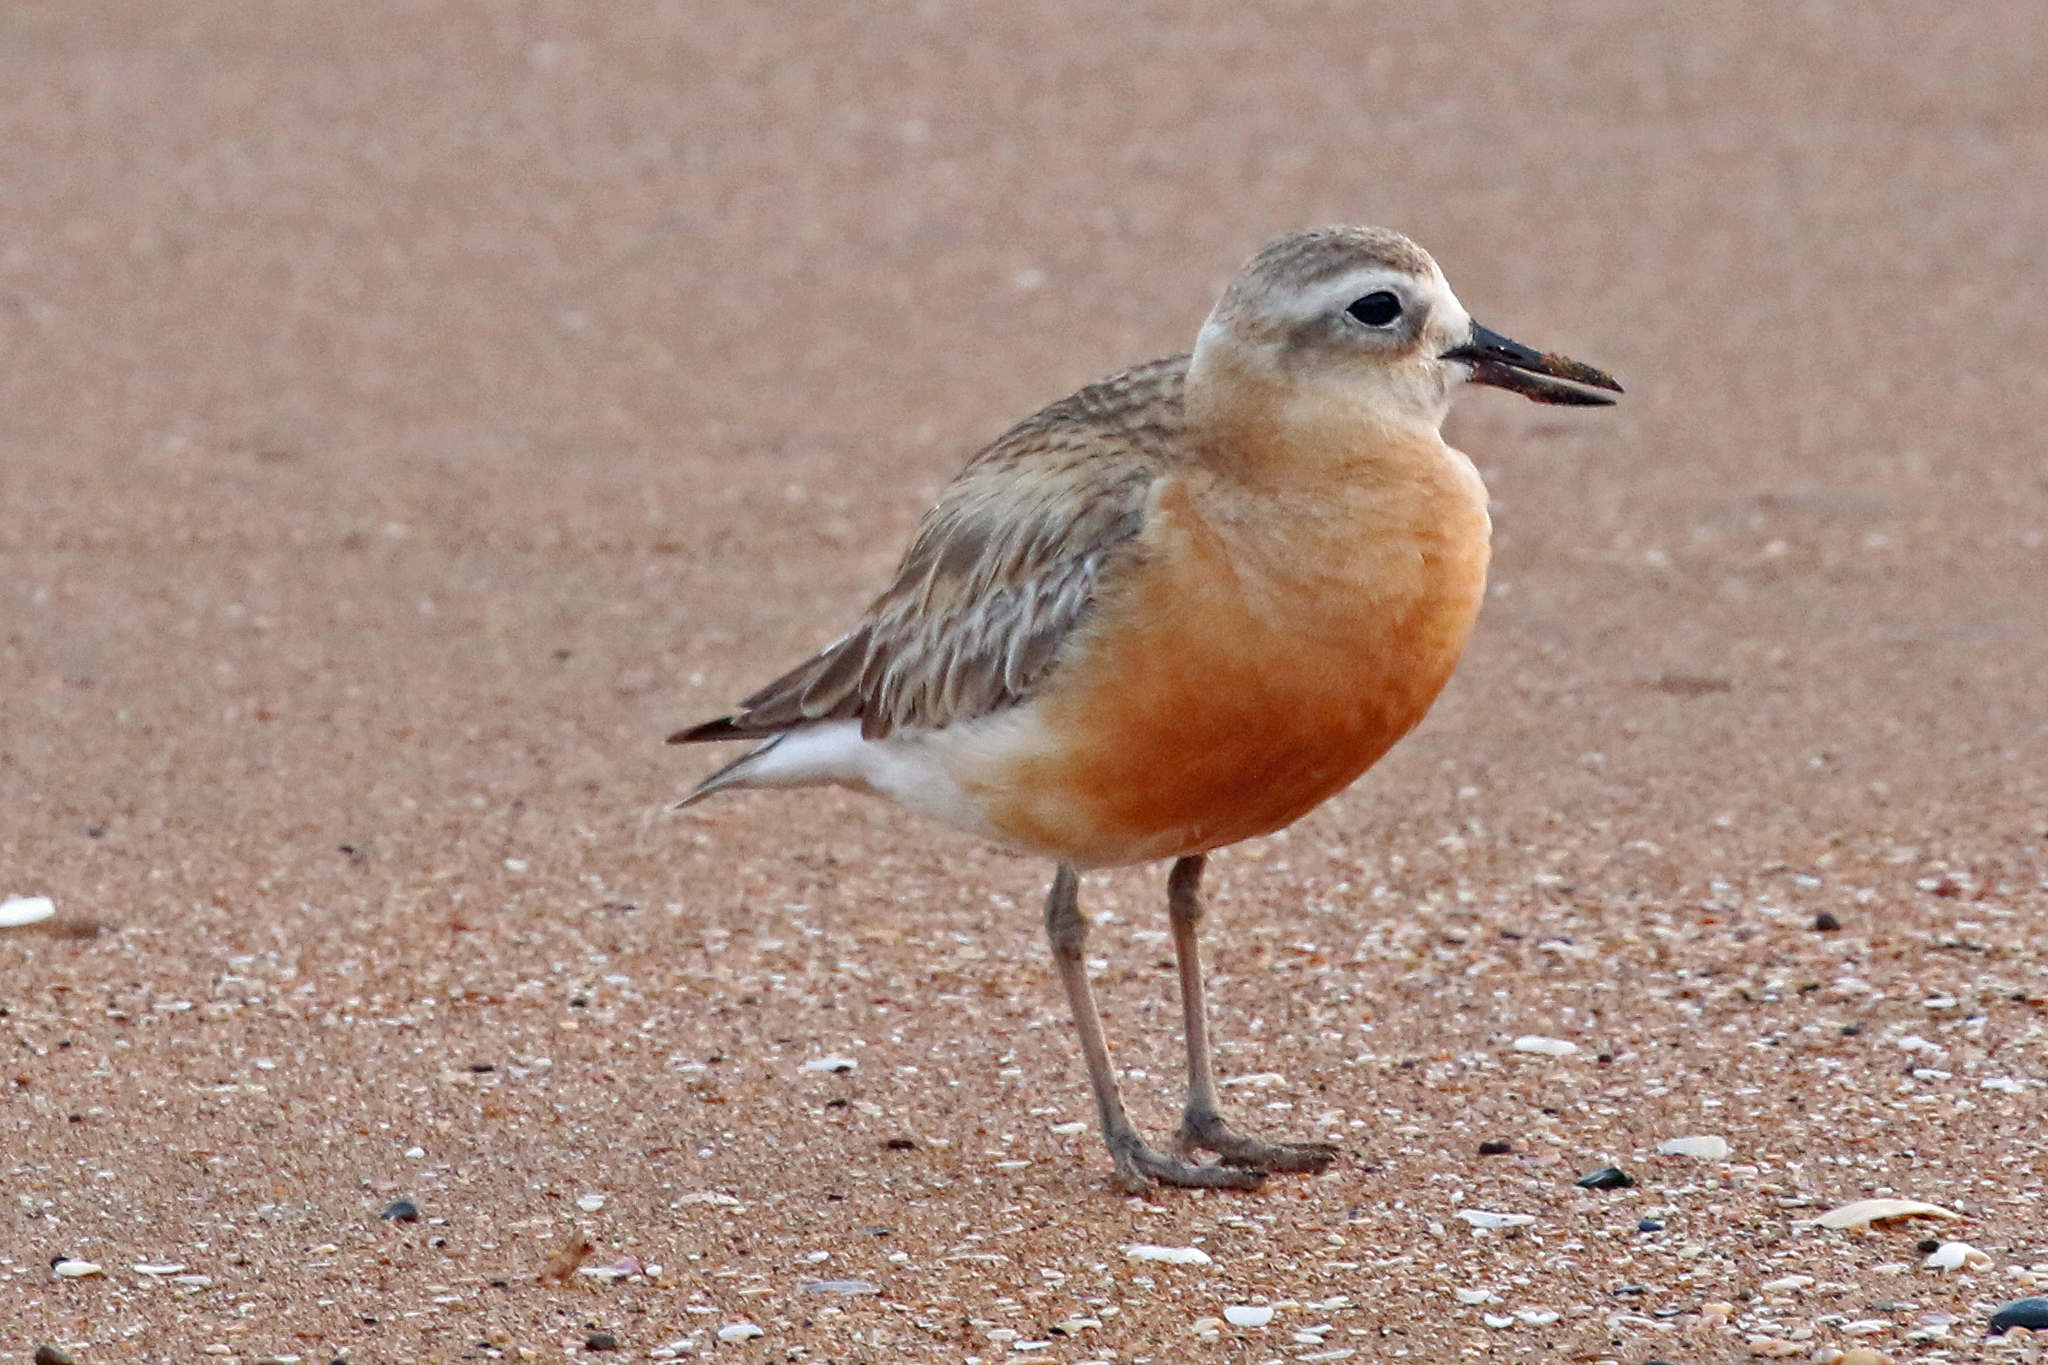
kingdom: Animalia
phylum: Chordata
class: Aves
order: Charadriiformes
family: Charadriidae
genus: Anarhynchus
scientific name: Anarhynchus
